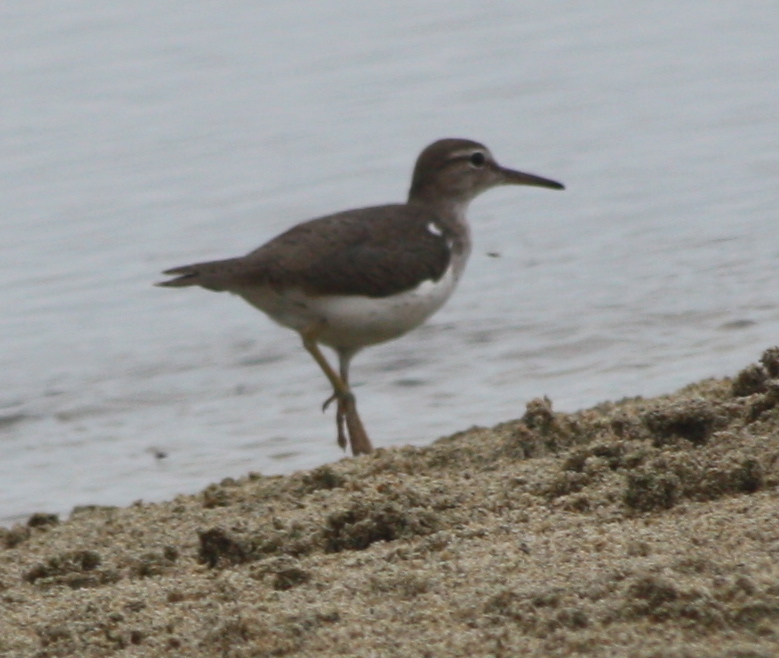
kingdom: Animalia
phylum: Chordata
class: Aves
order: Charadriiformes
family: Scolopacidae
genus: Actitis
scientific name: Actitis macularius
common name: Spotted sandpiper
